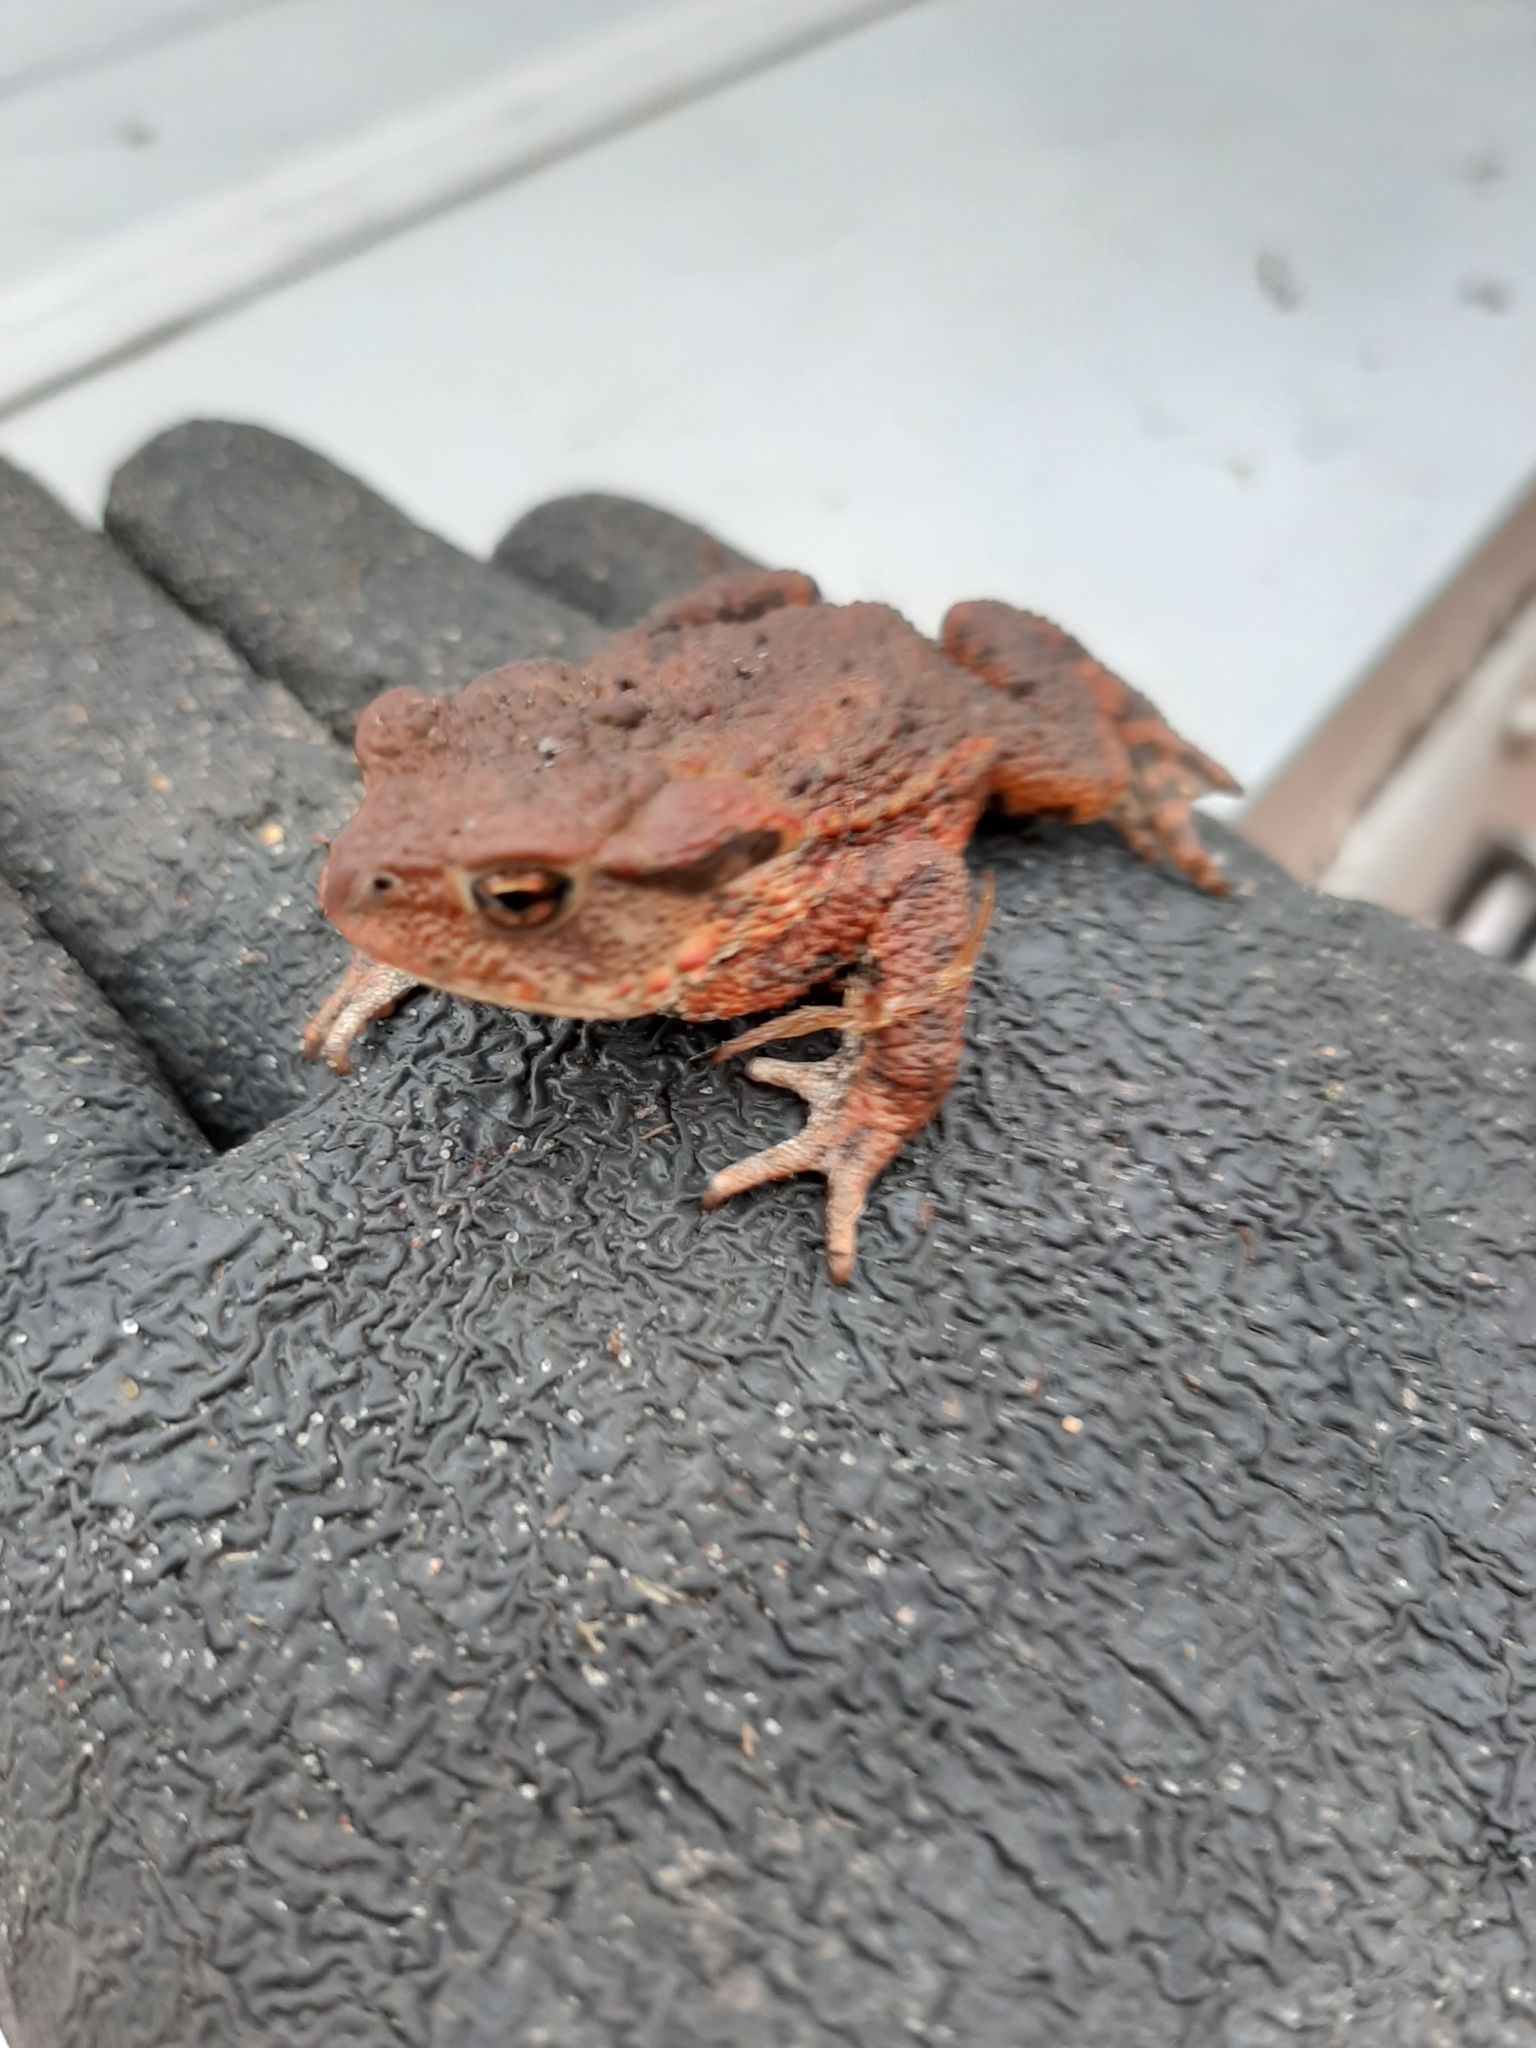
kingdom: Animalia
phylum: Chordata
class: Amphibia
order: Anura
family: Bufonidae
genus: Bufo
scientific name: Bufo bufo
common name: Common toad
